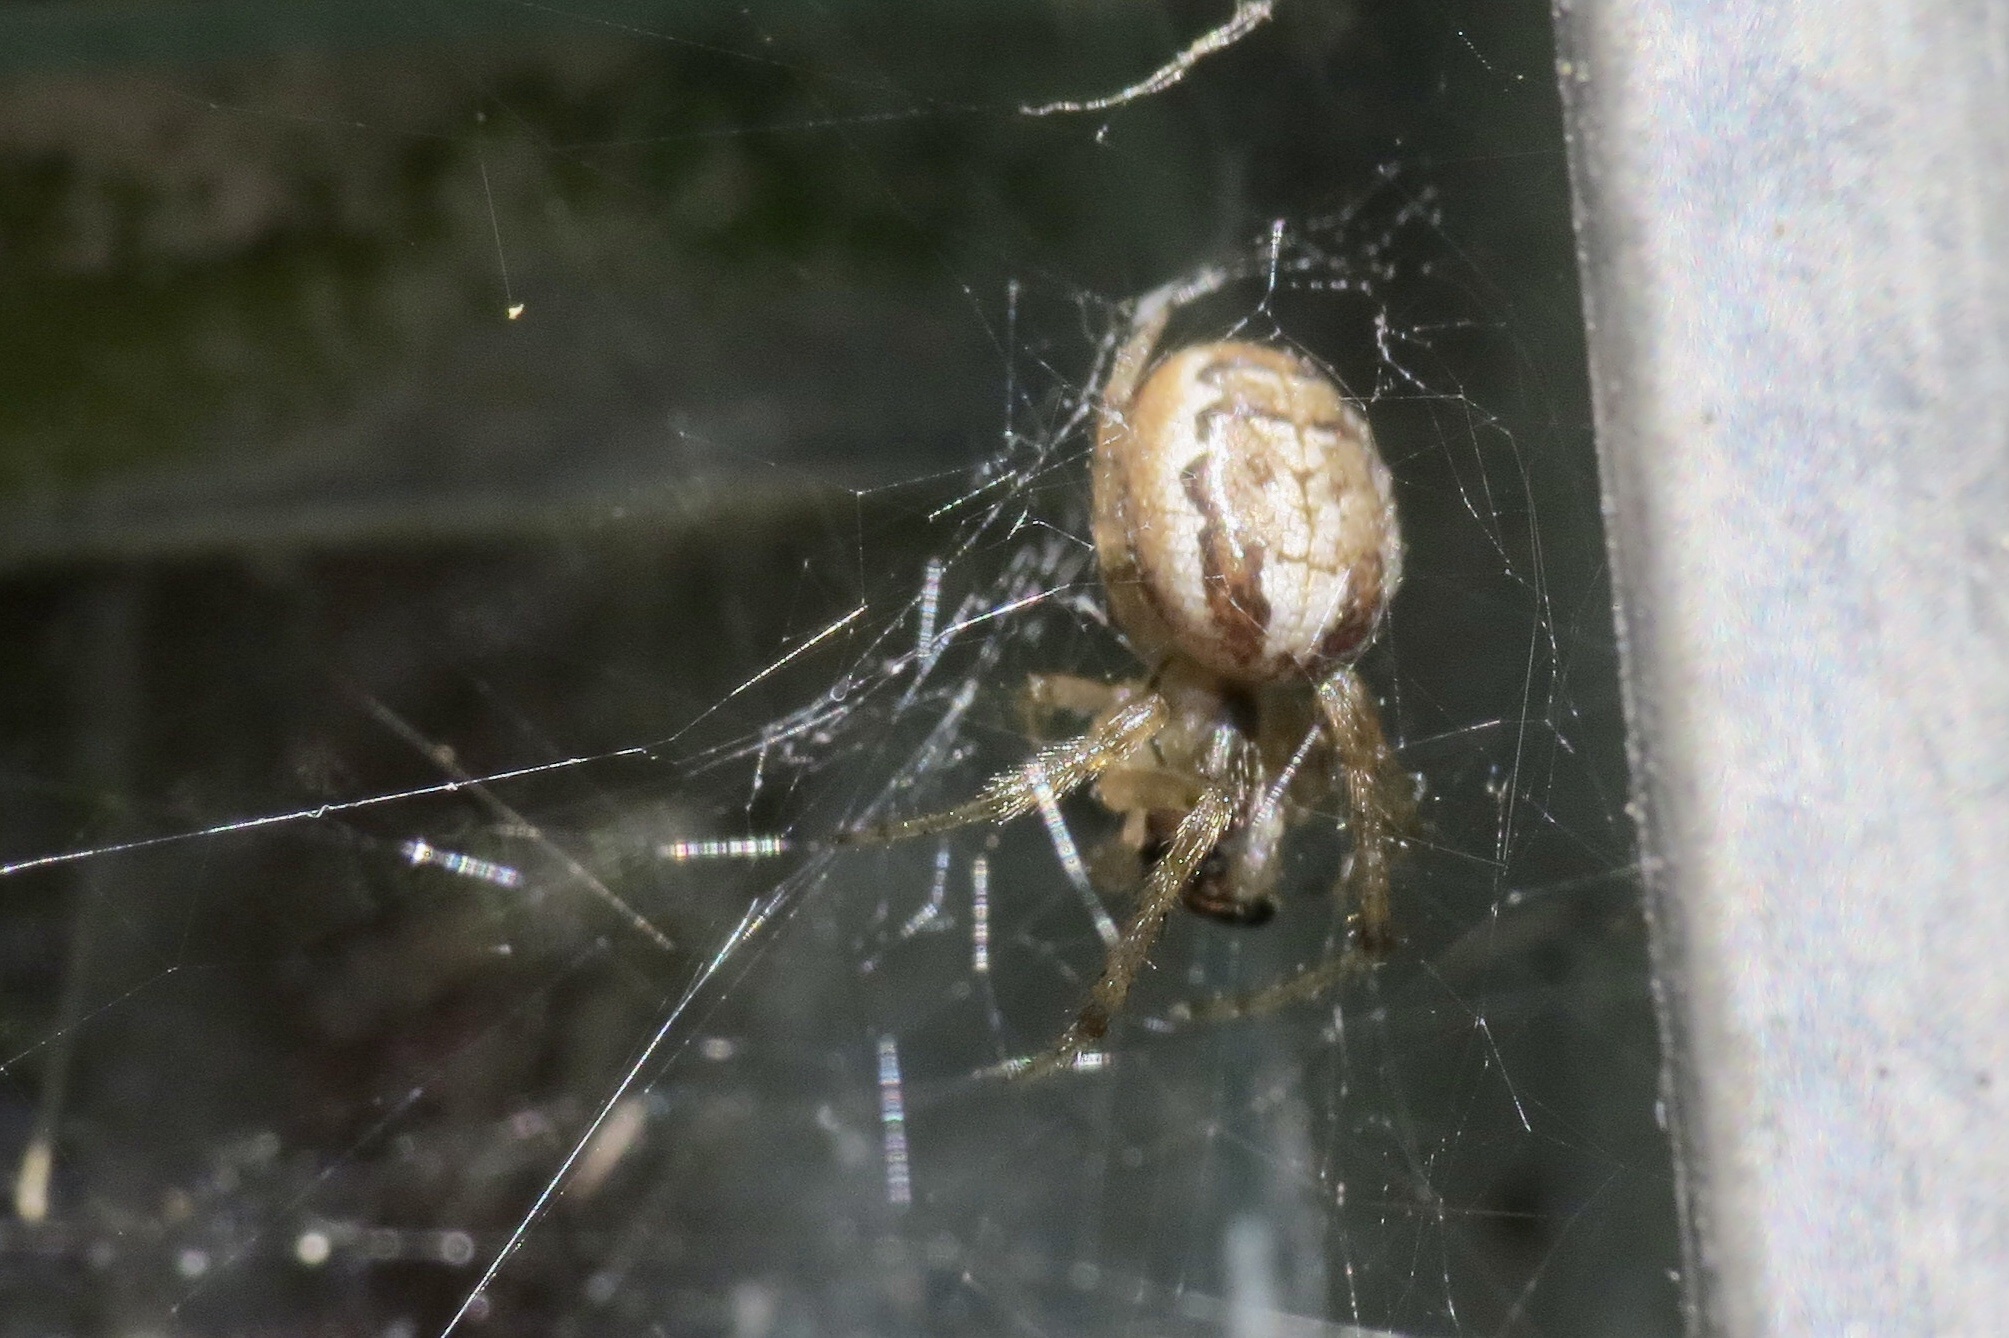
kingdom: Animalia
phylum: Arthropoda
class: Arachnida
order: Araneae
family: Araneidae
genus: Zygiella
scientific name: Zygiella x-notata
